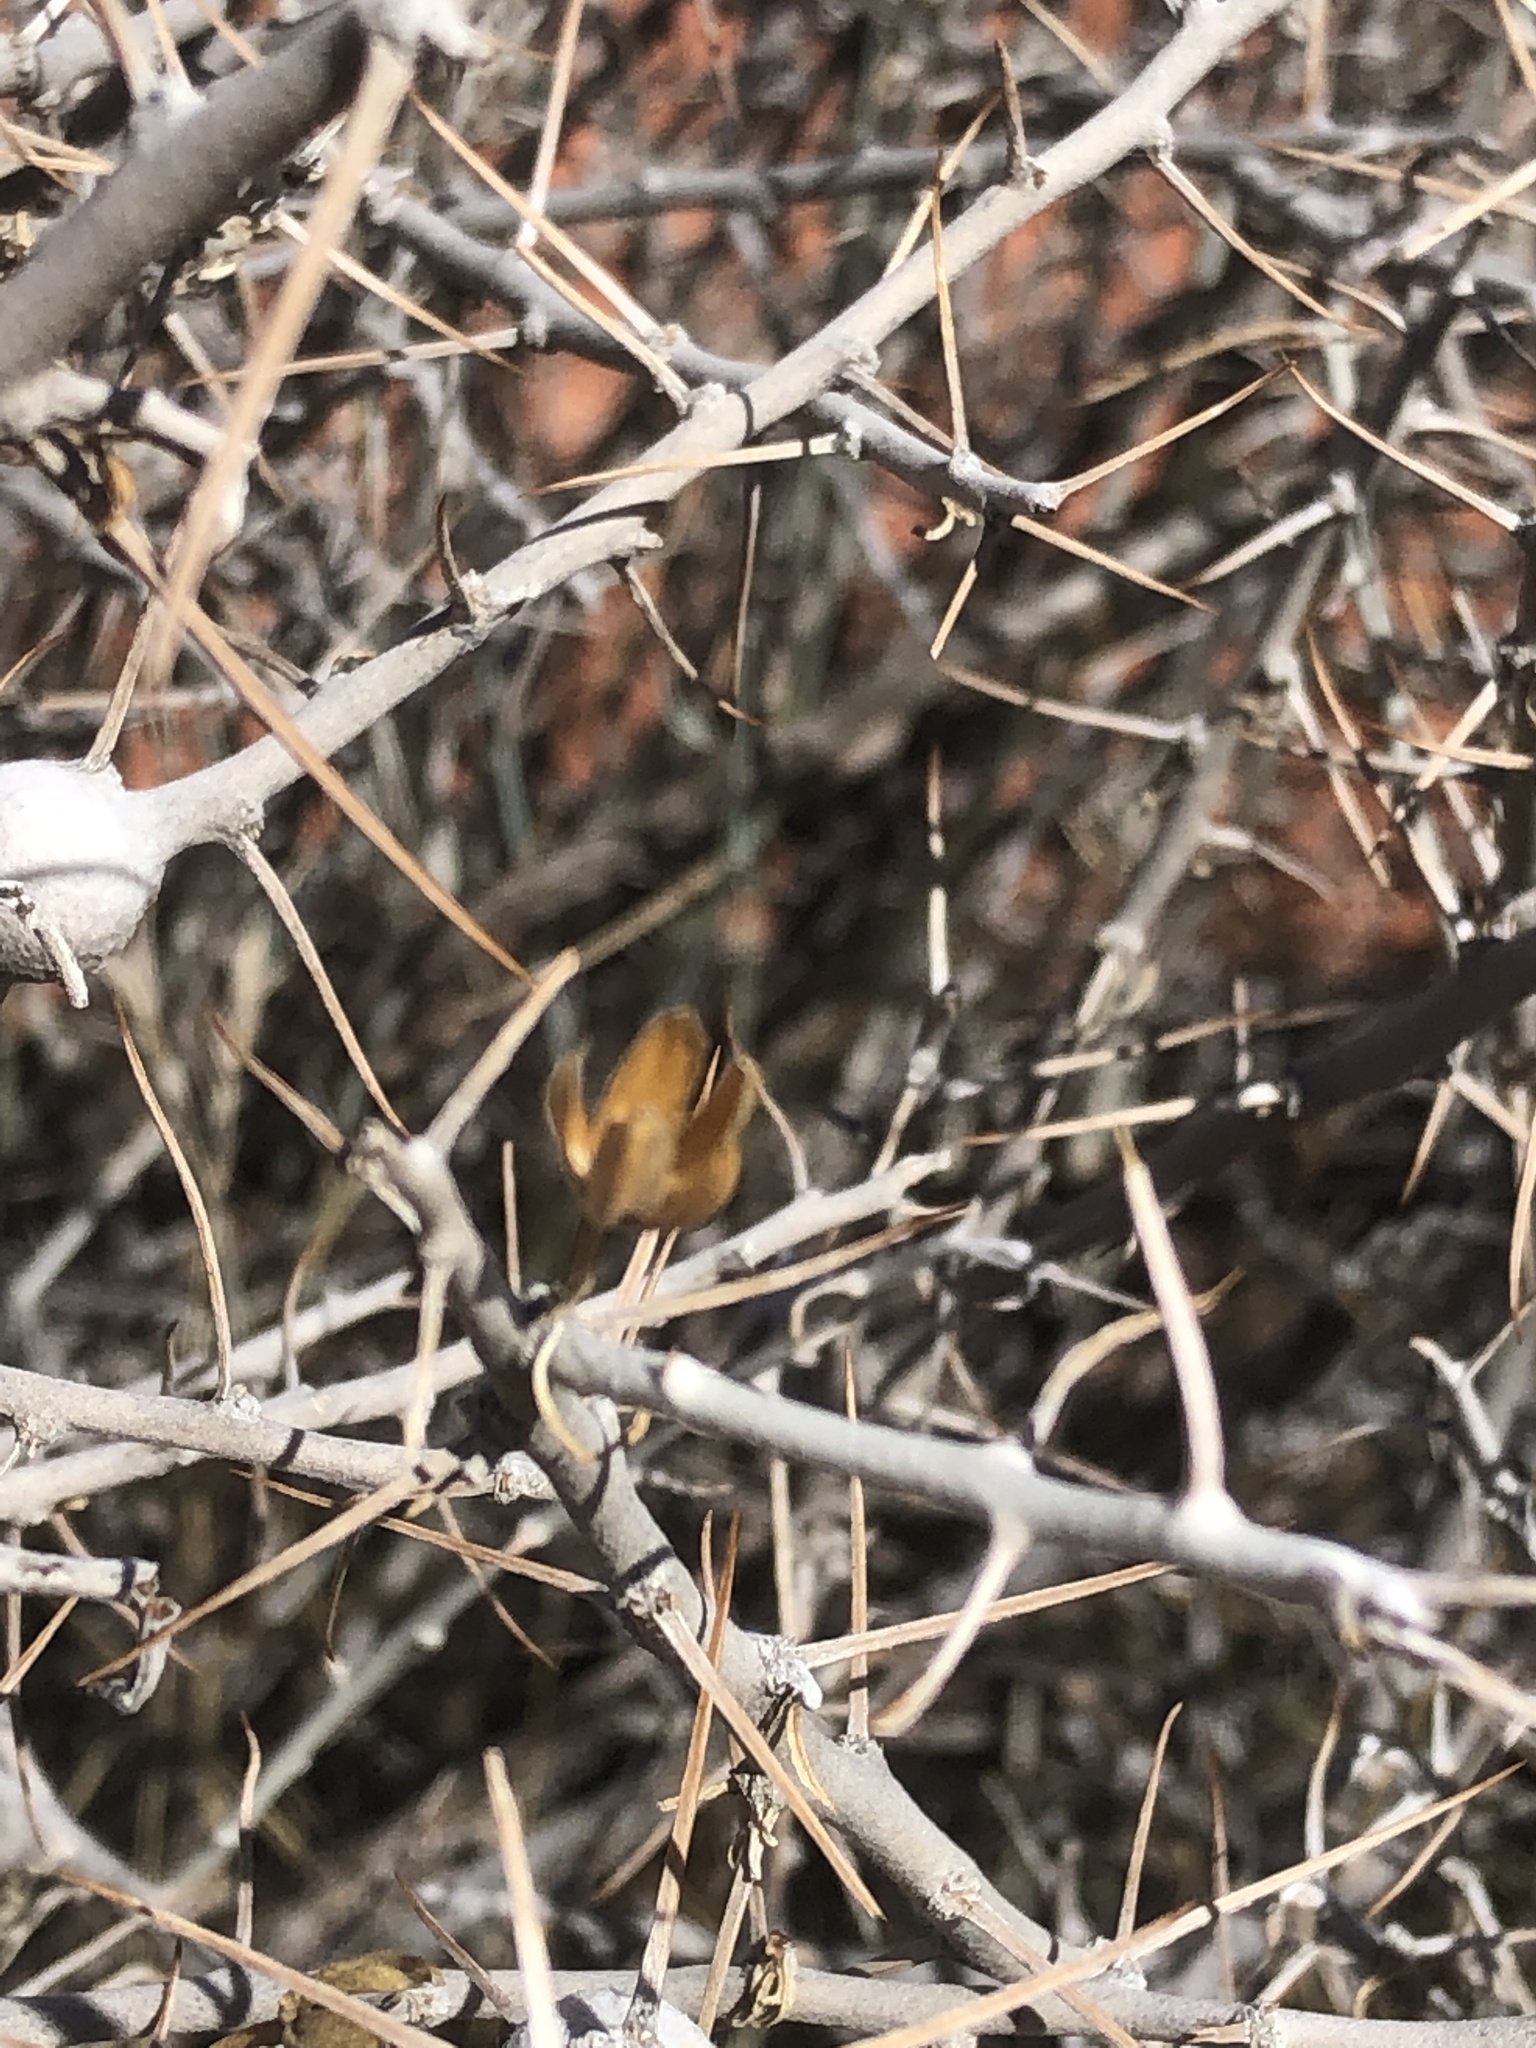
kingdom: Plantae
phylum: Tracheophyta
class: Magnoliopsida
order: Asterales
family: Asteraceae
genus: Tetradymia
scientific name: Tetradymia axillaris
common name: Long-spine horsebrush
